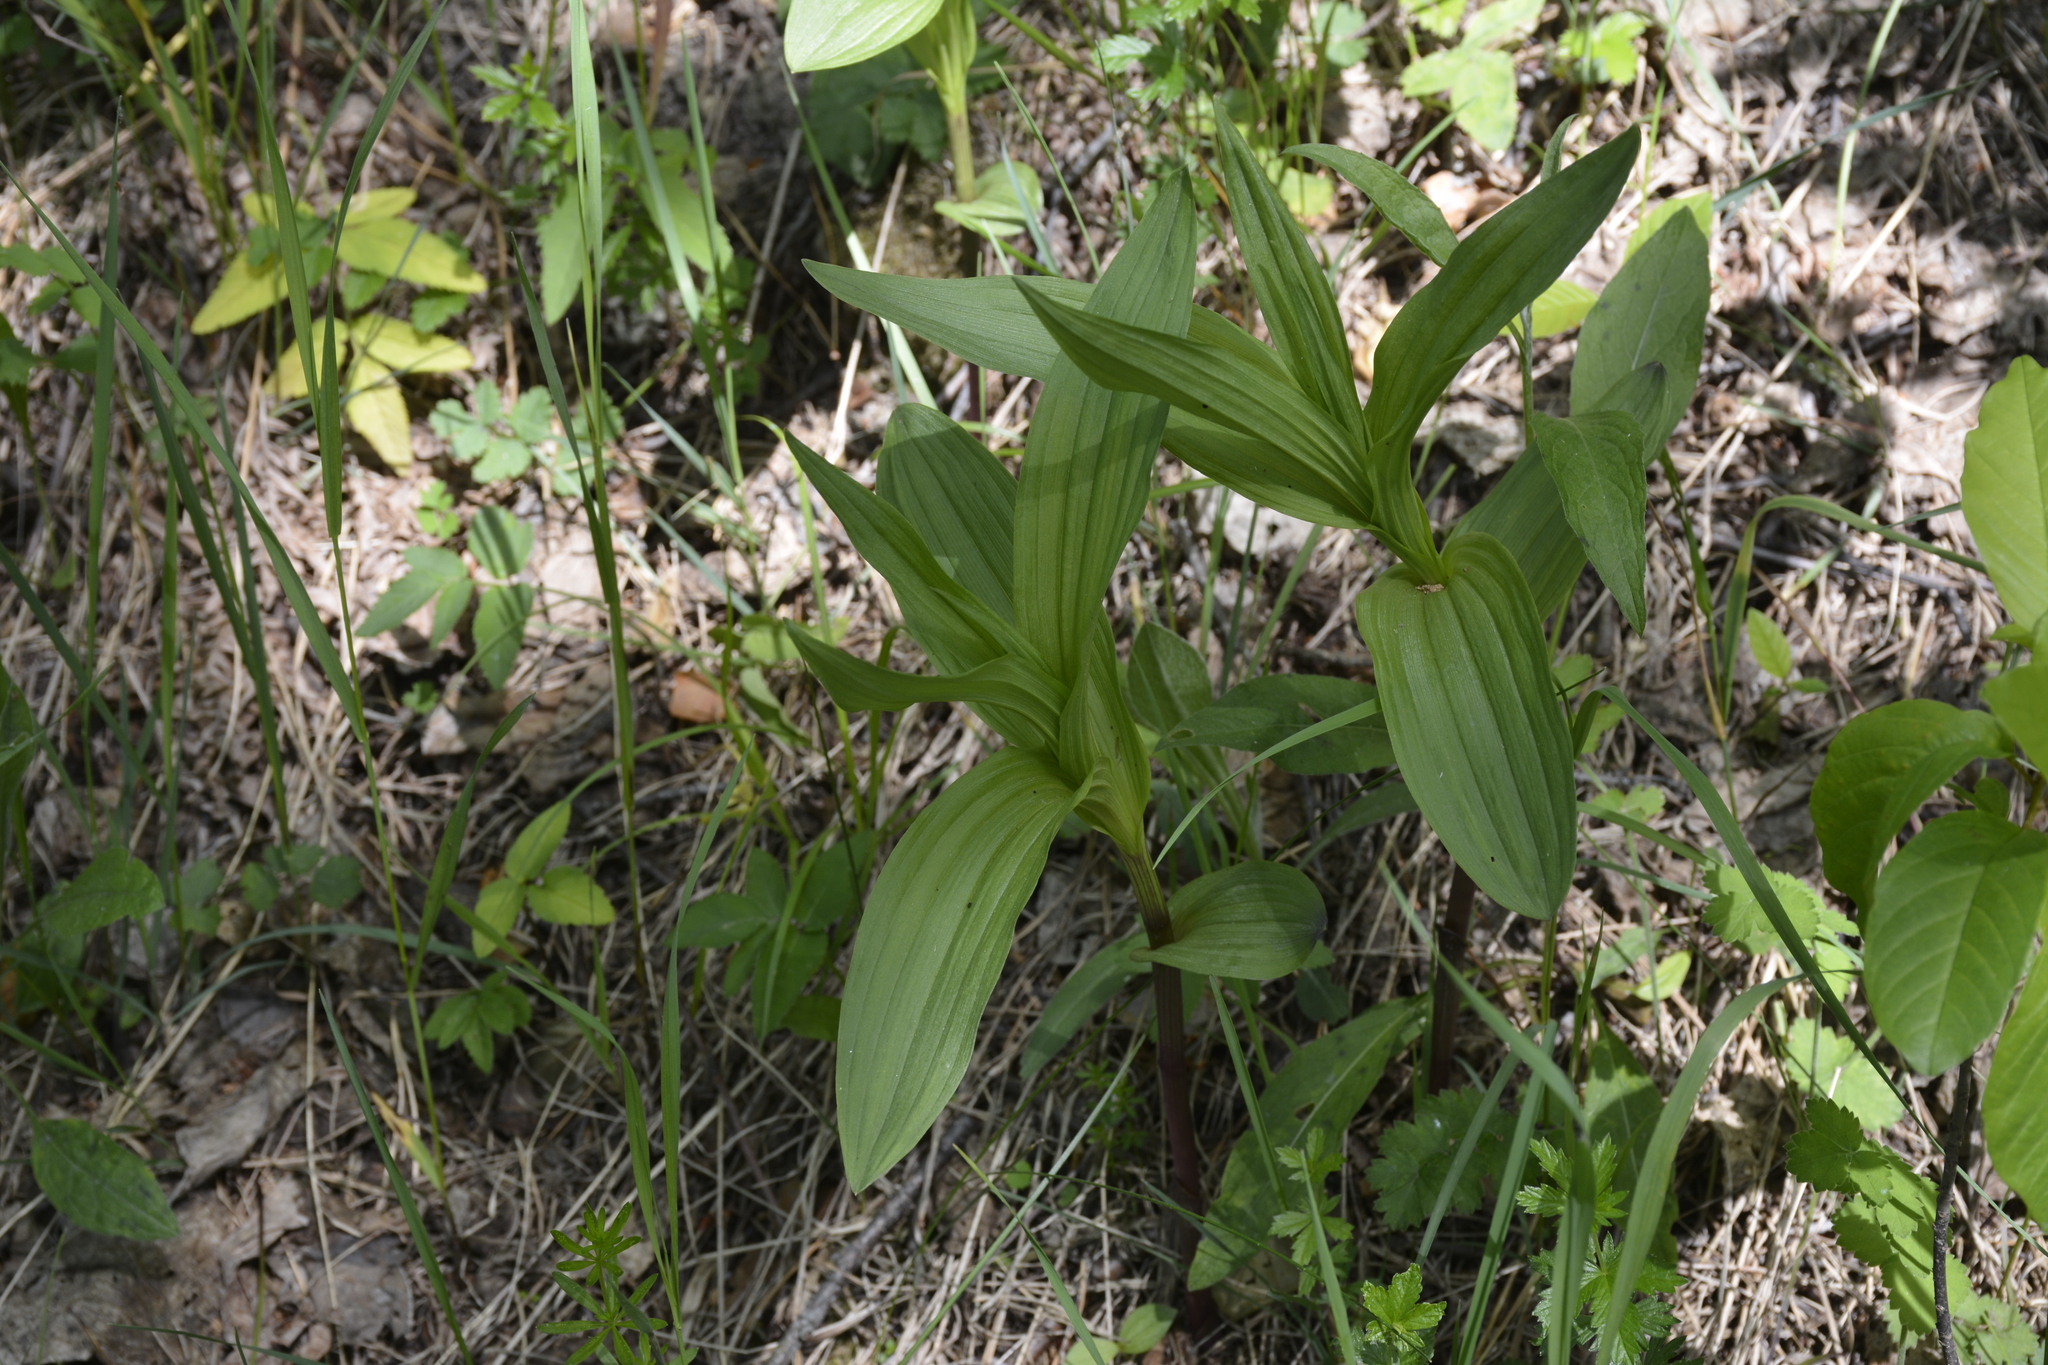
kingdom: Plantae
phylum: Tracheophyta
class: Liliopsida
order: Asparagales
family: Orchidaceae
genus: Epipactis
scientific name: Epipactis palustris
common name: Marsh helleborine
